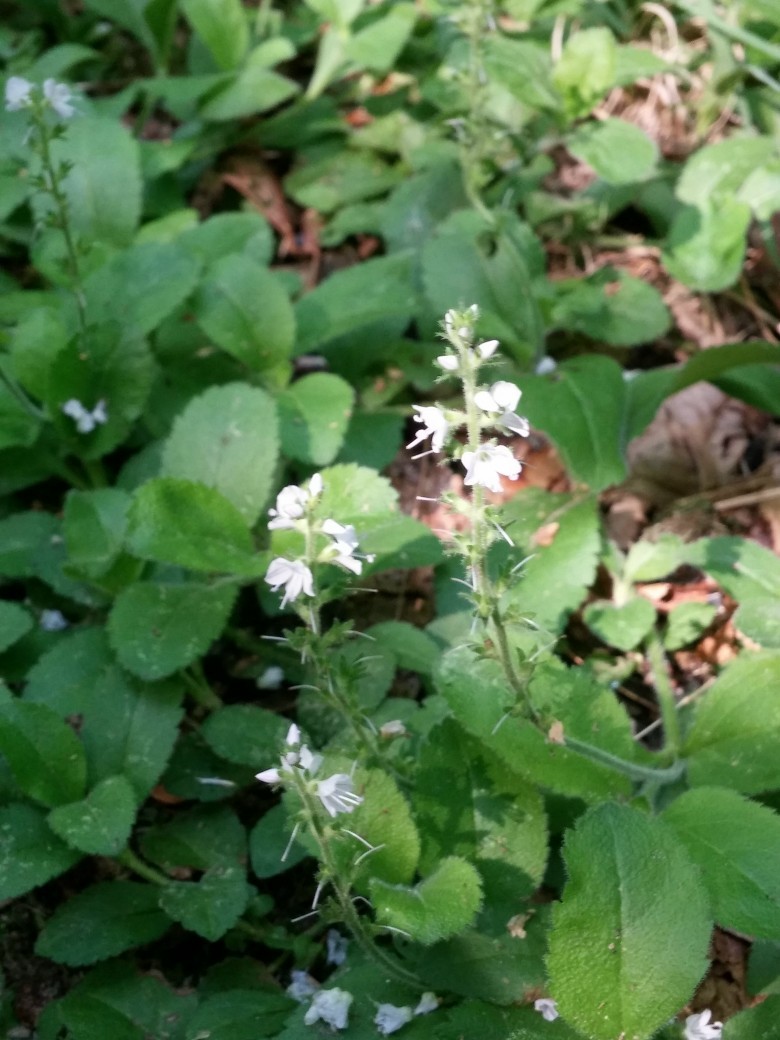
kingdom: Plantae
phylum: Tracheophyta
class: Magnoliopsida
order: Lamiales
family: Plantaginaceae
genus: Veronica
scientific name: Veronica officinalis
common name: Common speedwell
